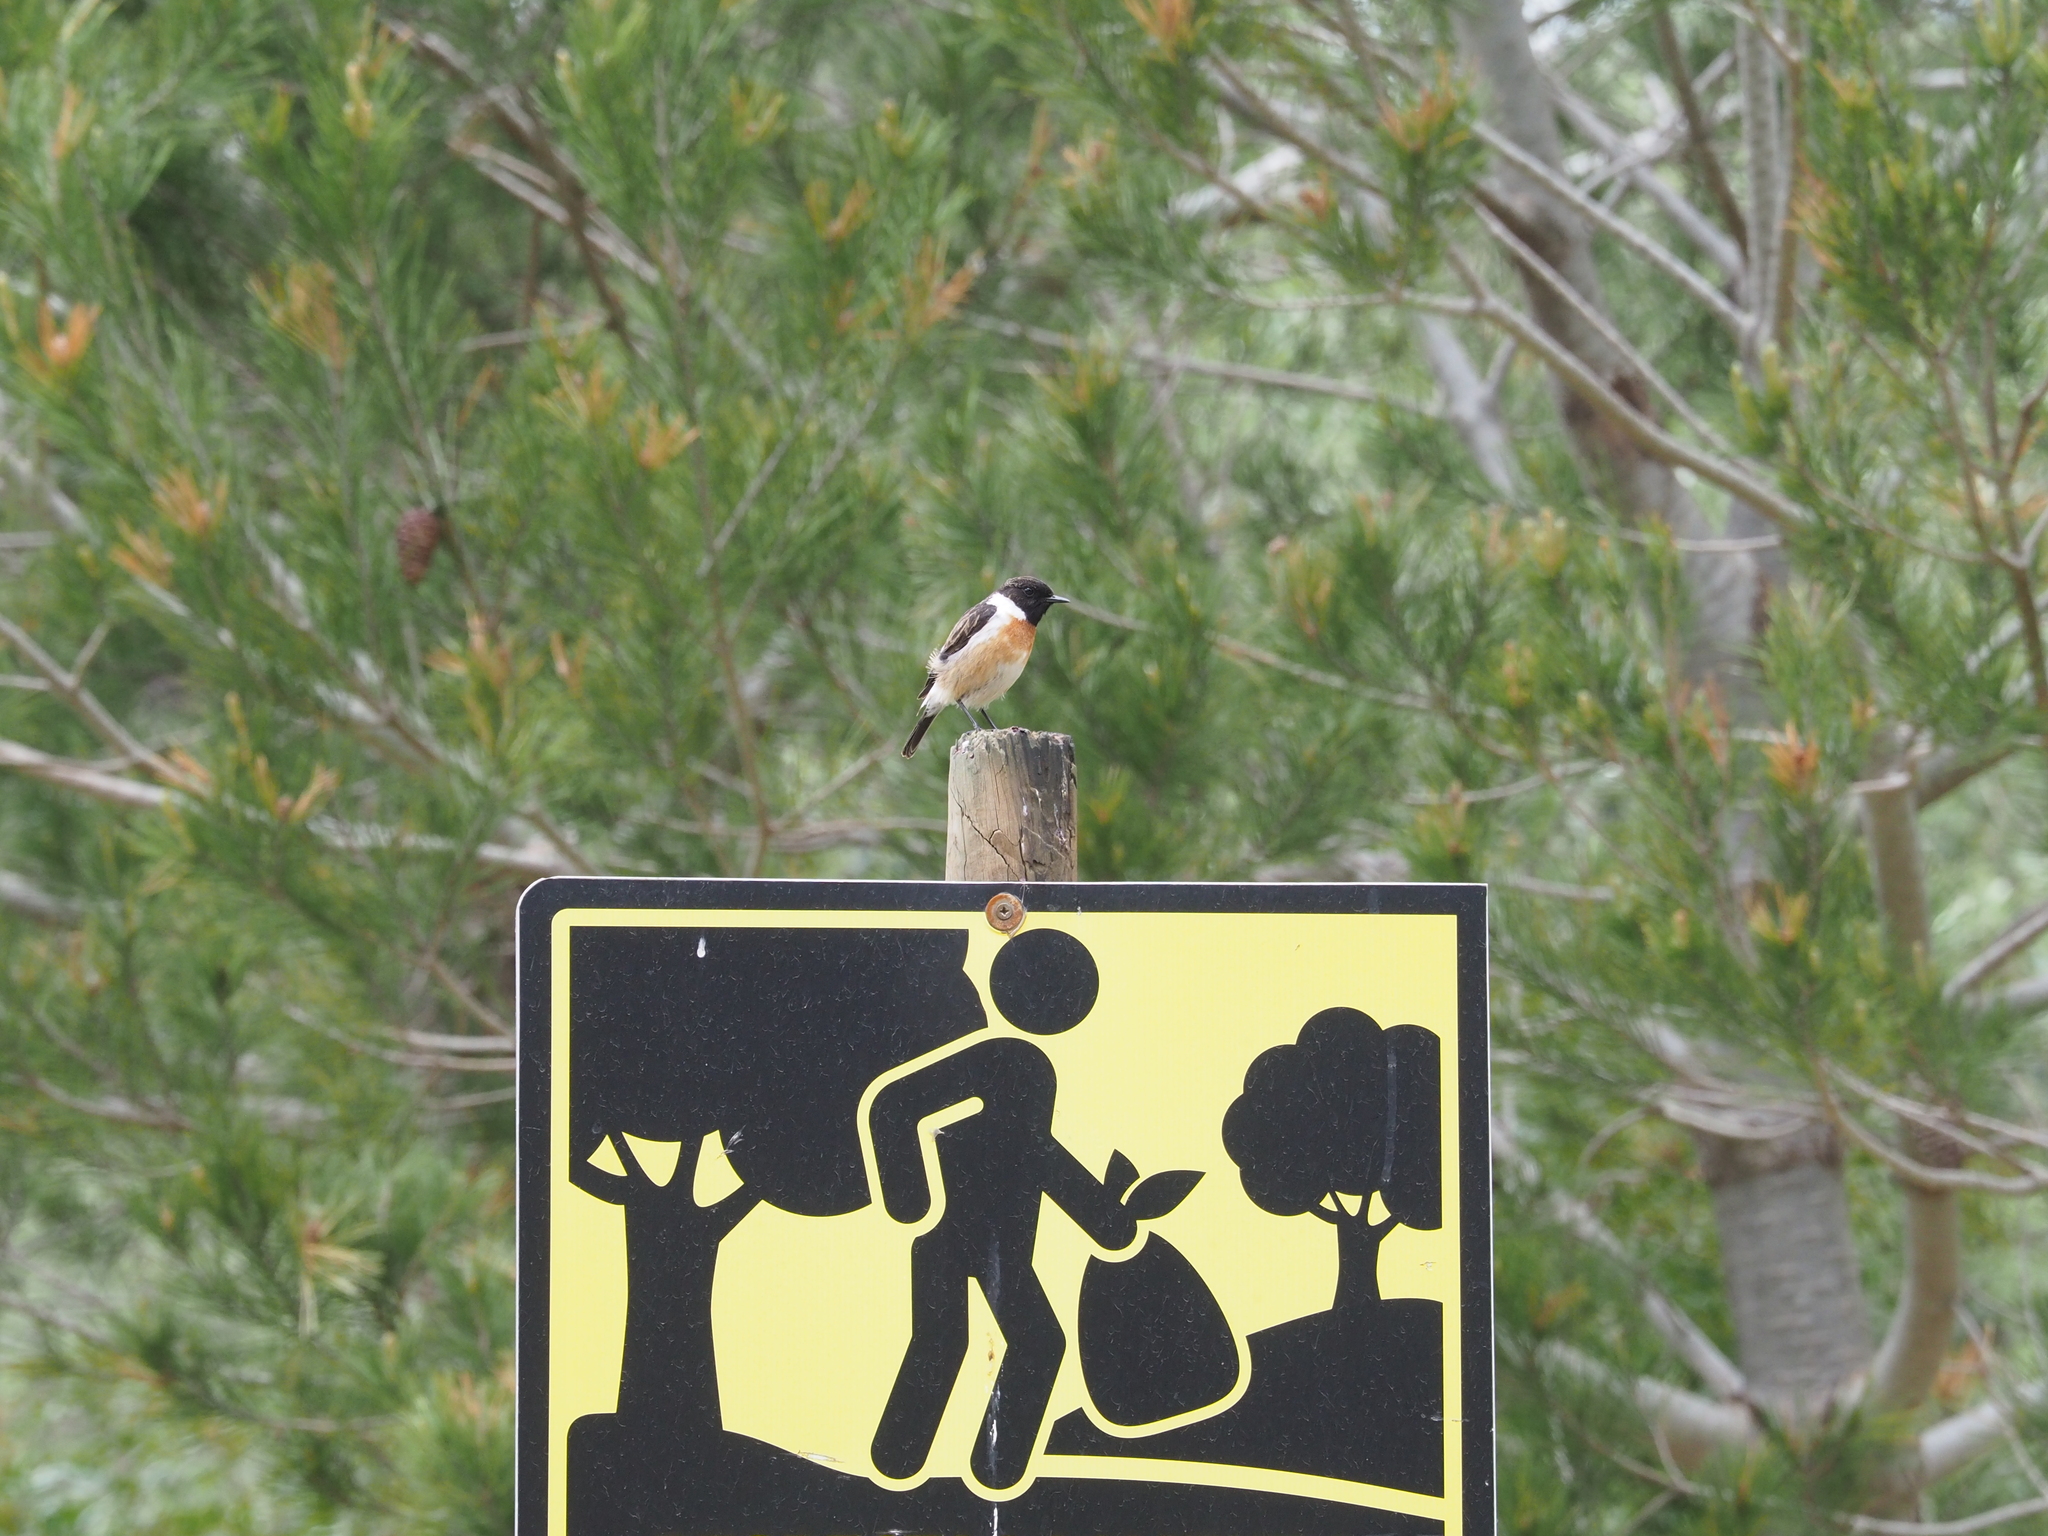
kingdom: Animalia
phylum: Chordata
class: Aves
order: Passeriformes
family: Muscicapidae
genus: Saxicola
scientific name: Saxicola rubicola
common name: European stonechat
